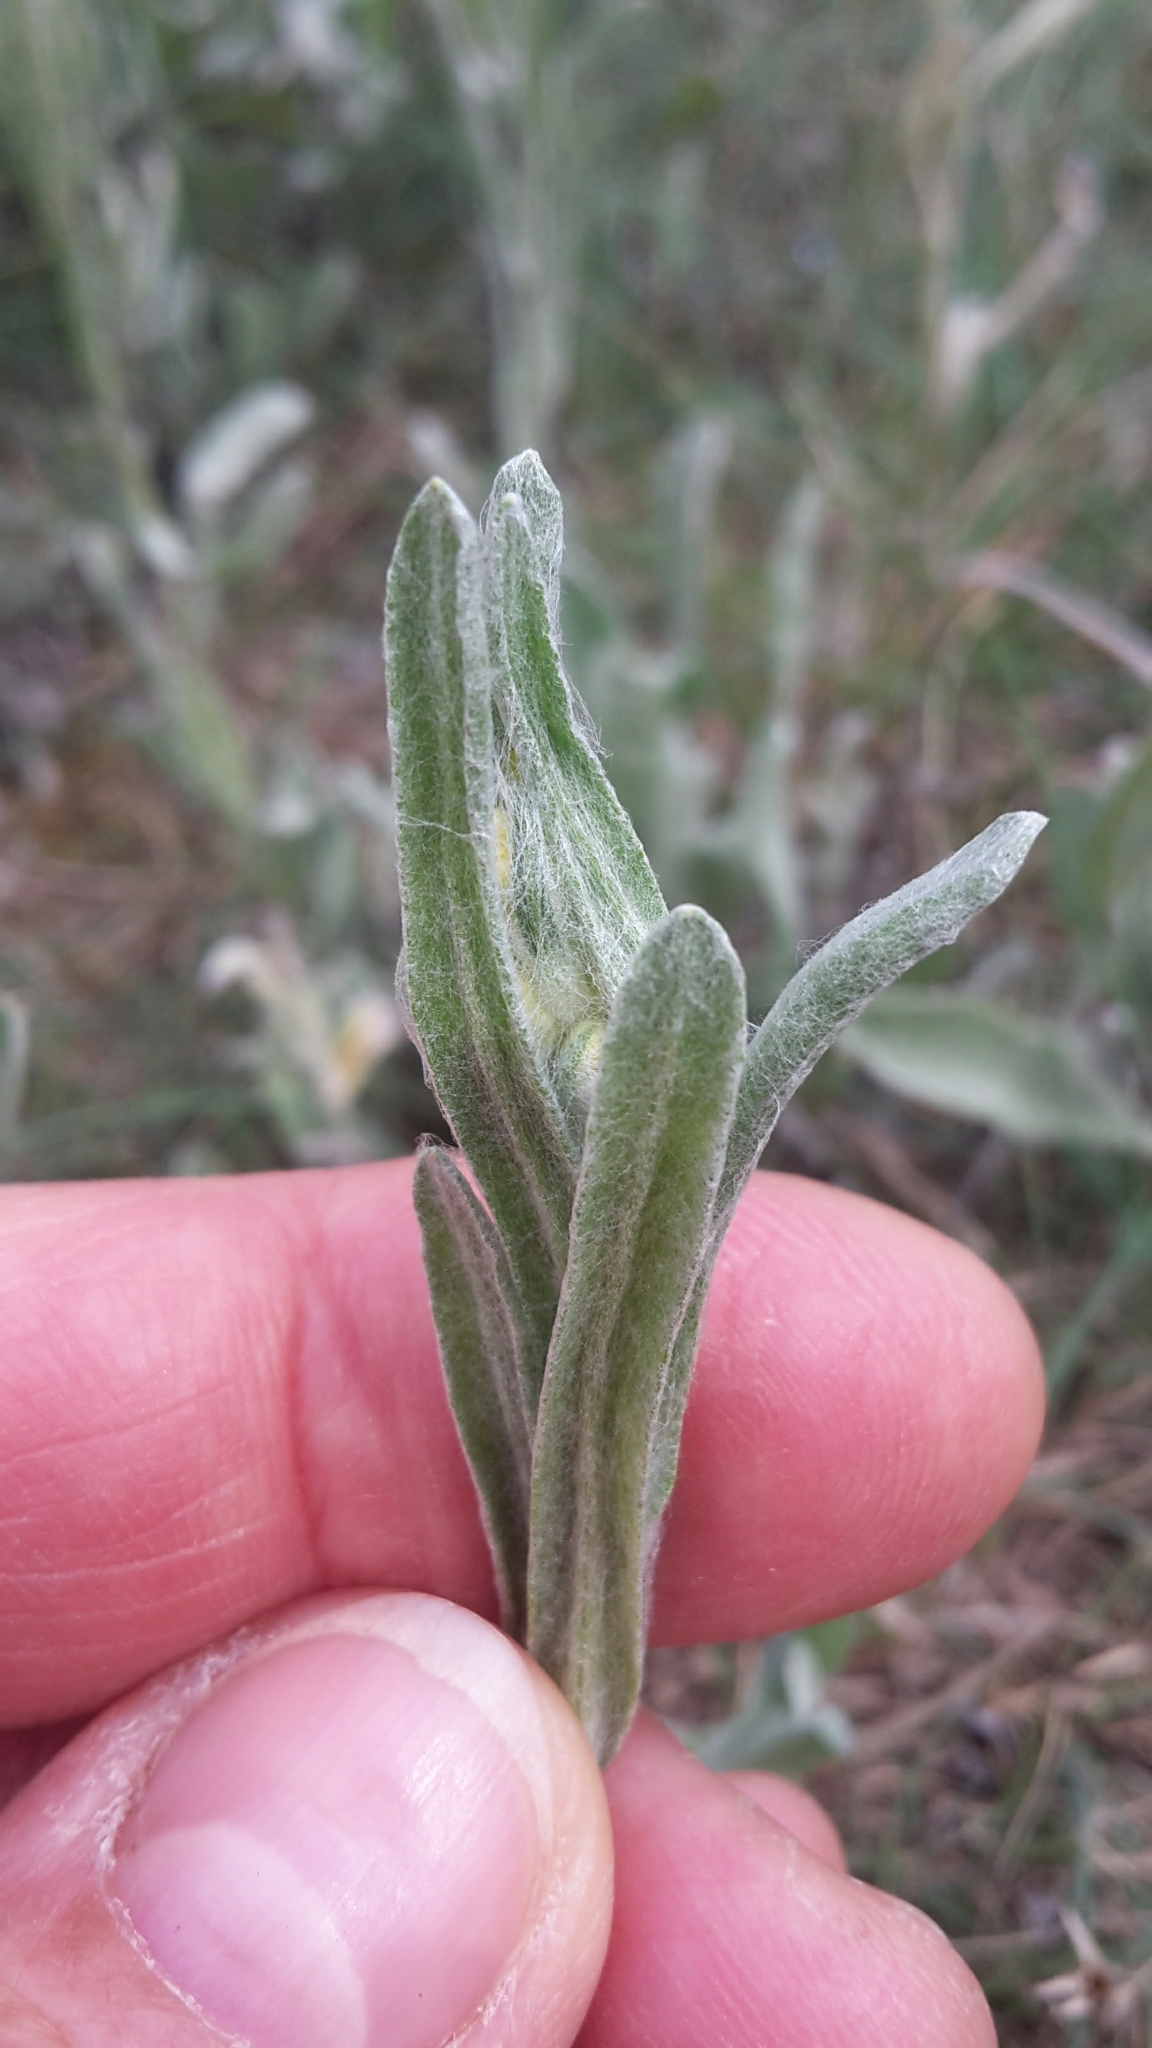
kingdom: Plantae
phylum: Tracheophyta
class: Magnoliopsida
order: Asterales
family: Asteraceae
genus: Helichrysum
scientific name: Helichrysum arenarium
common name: Strawflower
